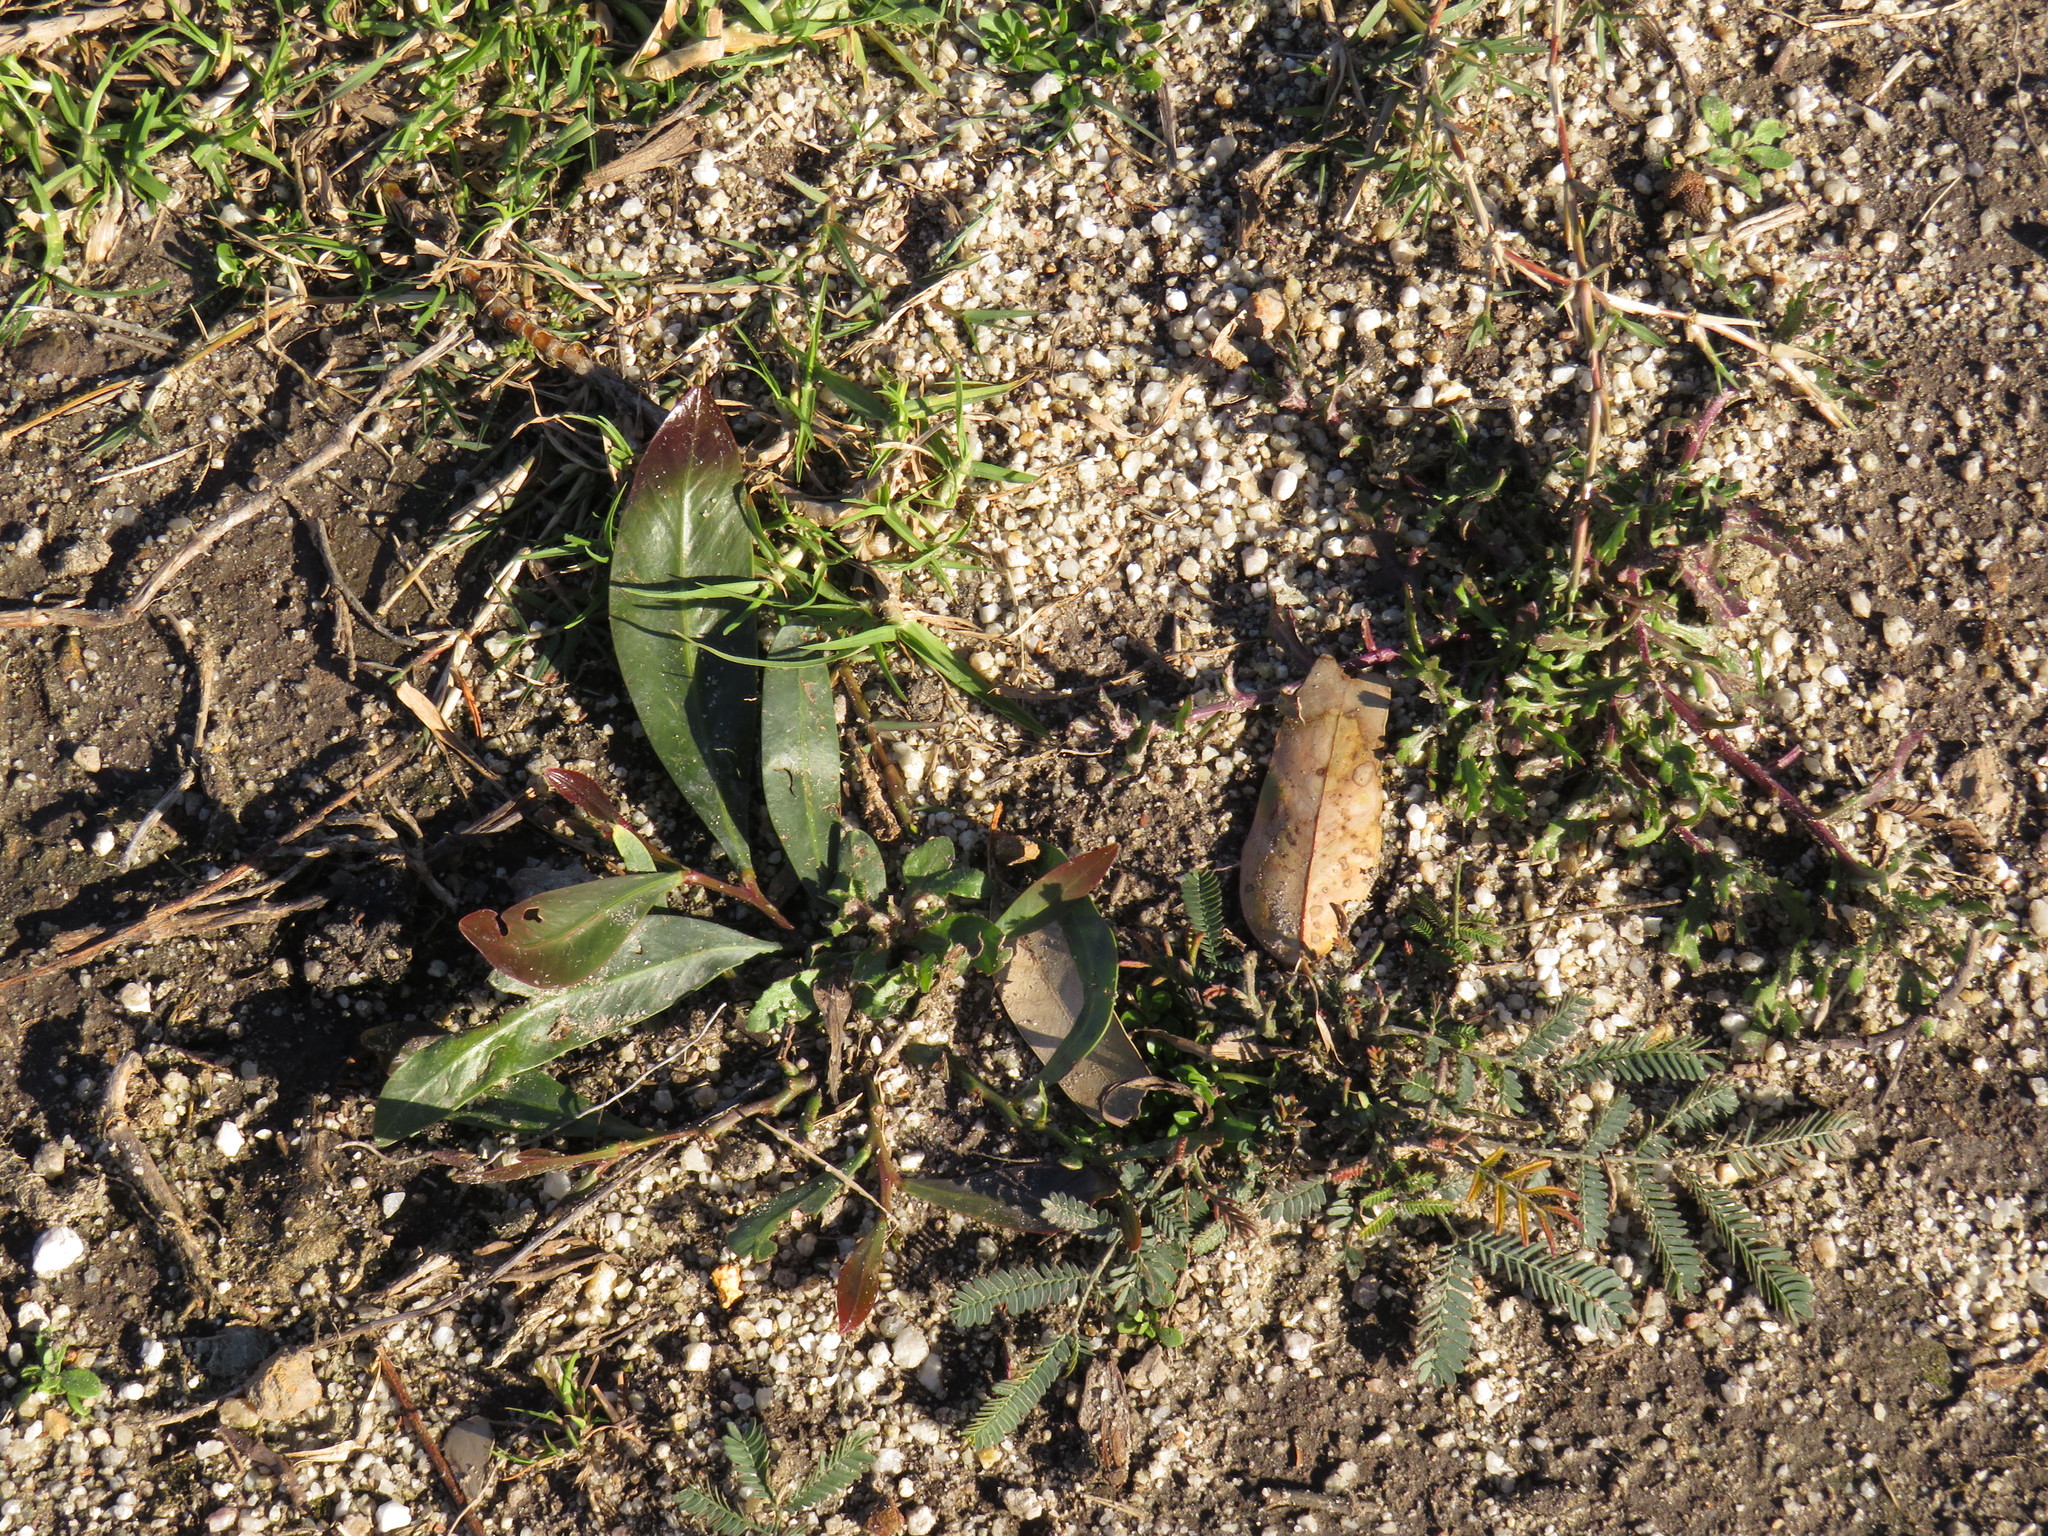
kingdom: Plantae
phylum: Tracheophyta
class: Magnoliopsida
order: Fabales
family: Fabaceae
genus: Acacia
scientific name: Acacia saligna
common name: Orange wattle
